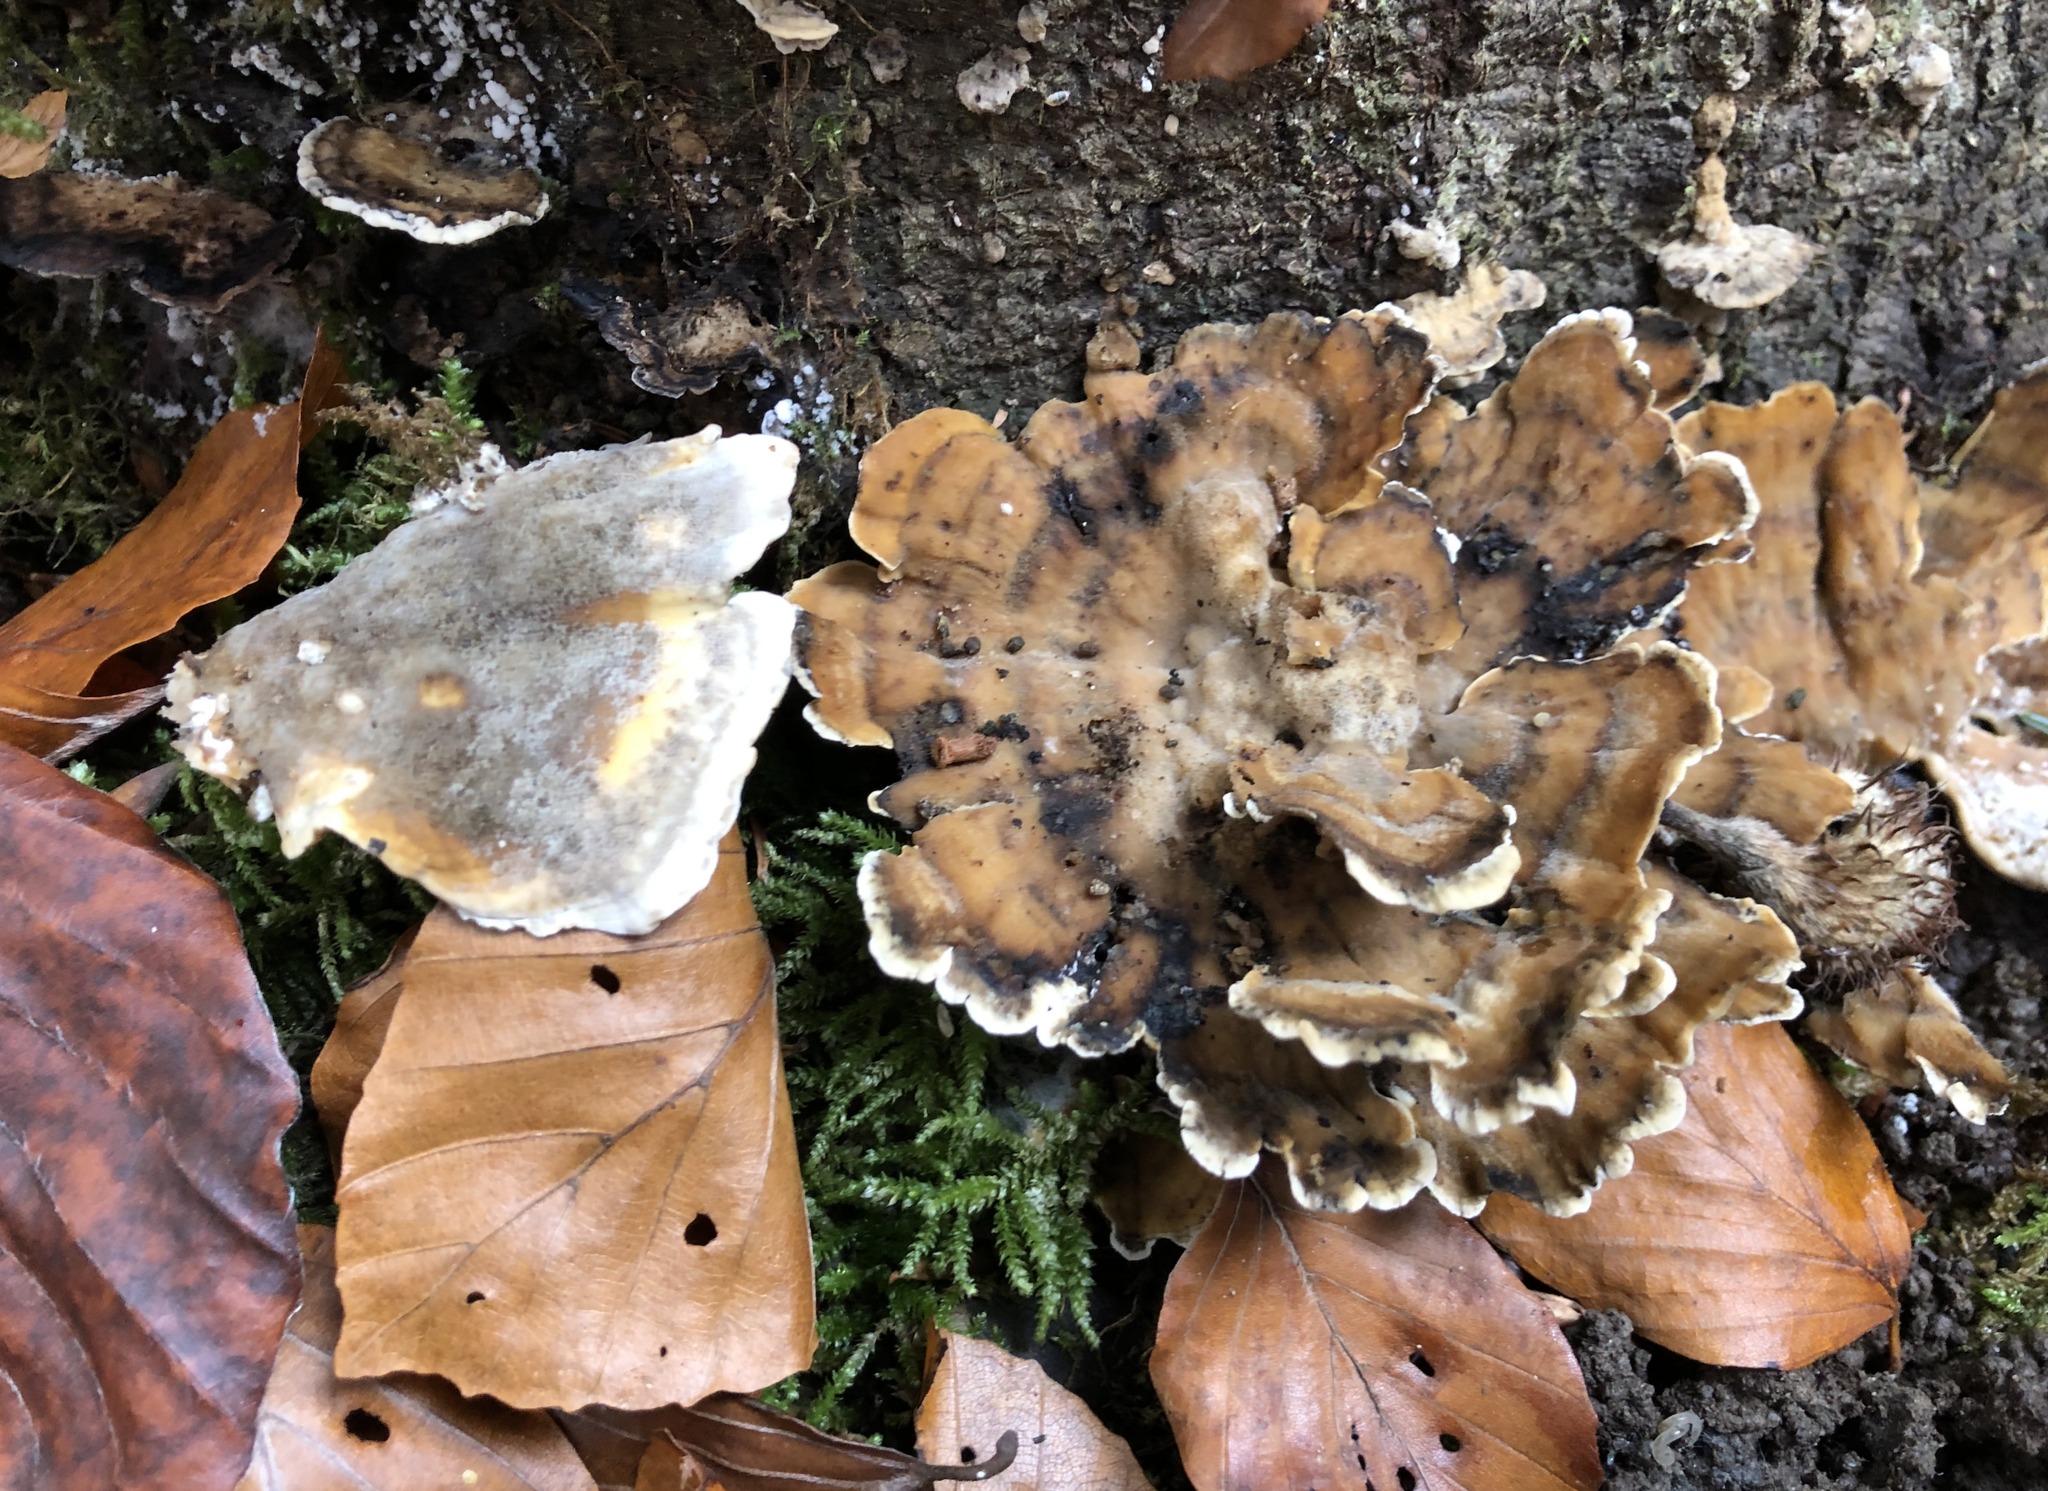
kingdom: Fungi
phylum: Basidiomycota
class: Agaricomycetes
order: Polyporales
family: Phanerochaetaceae
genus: Bjerkandera
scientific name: Bjerkandera adusta
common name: Smoky bracket
